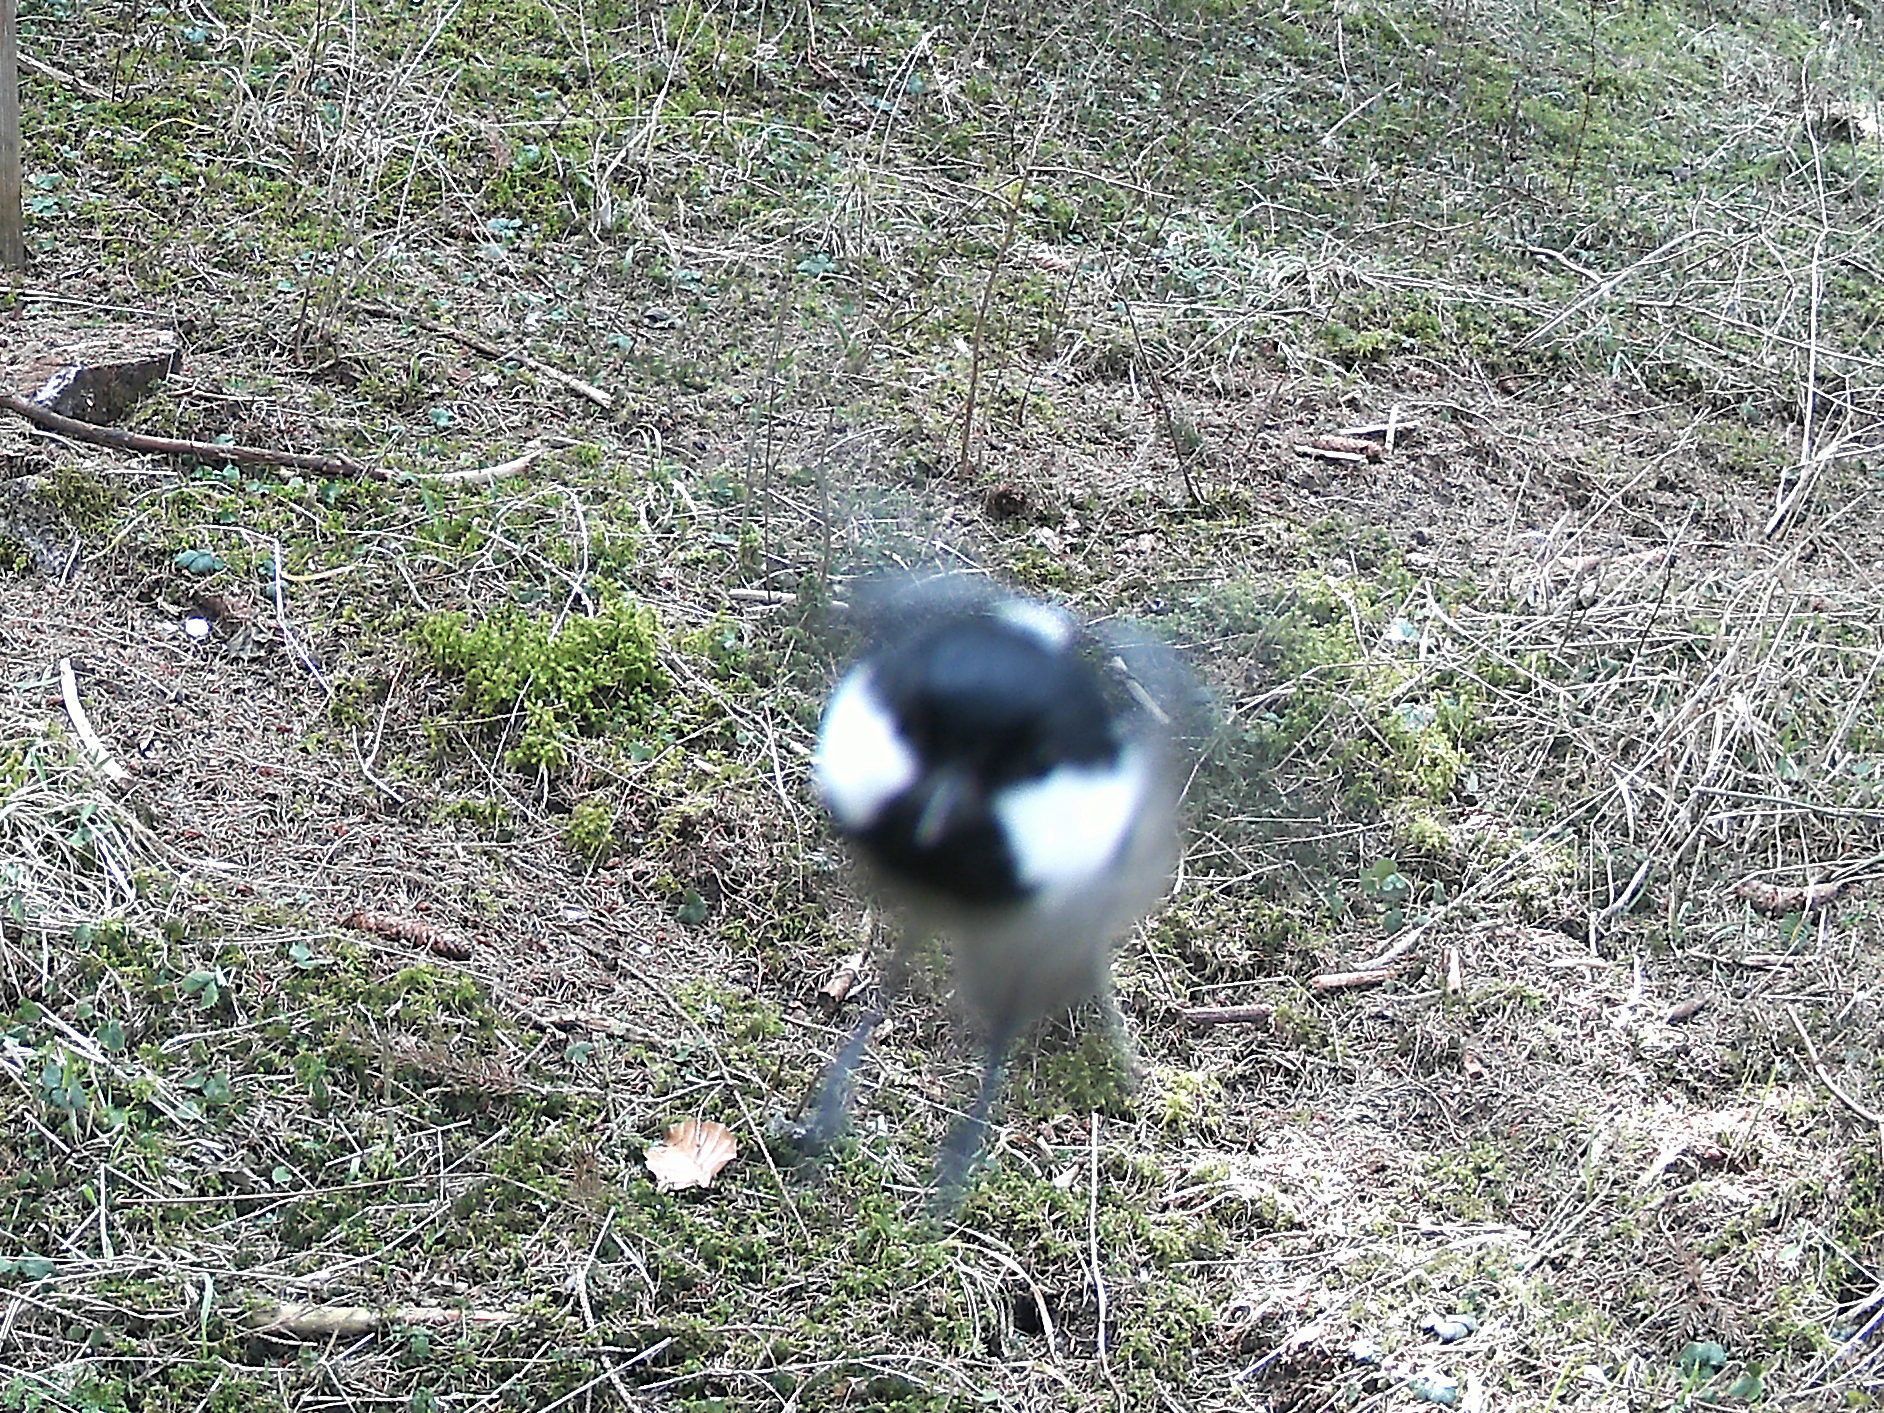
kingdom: Animalia
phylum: Chordata
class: Aves
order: Passeriformes
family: Paridae
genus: Periparus
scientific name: Periparus ater
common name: Coal tit
